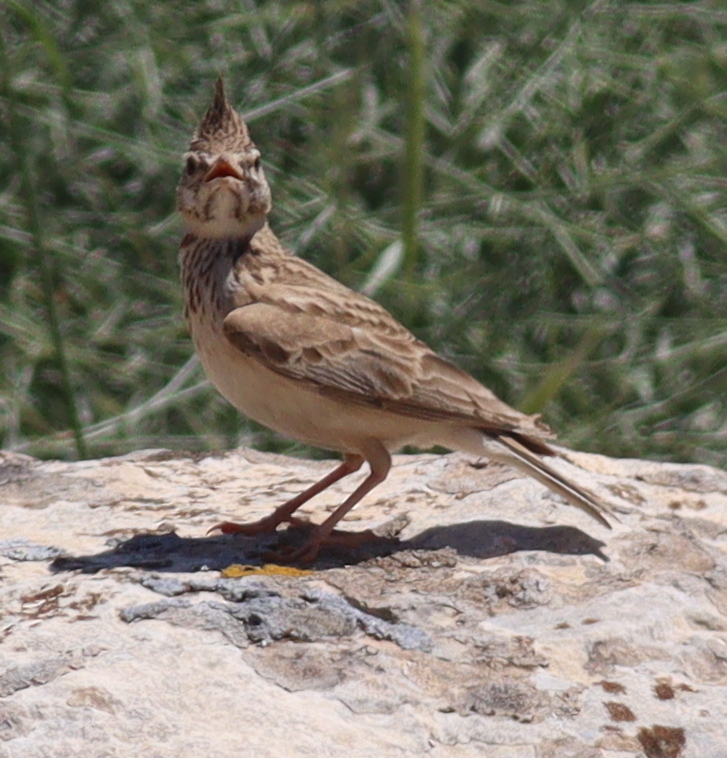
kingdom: Animalia
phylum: Chordata
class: Aves
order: Passeriformes
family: Alaudidae
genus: Galerida
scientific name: Galerida cristata
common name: Crested lark
